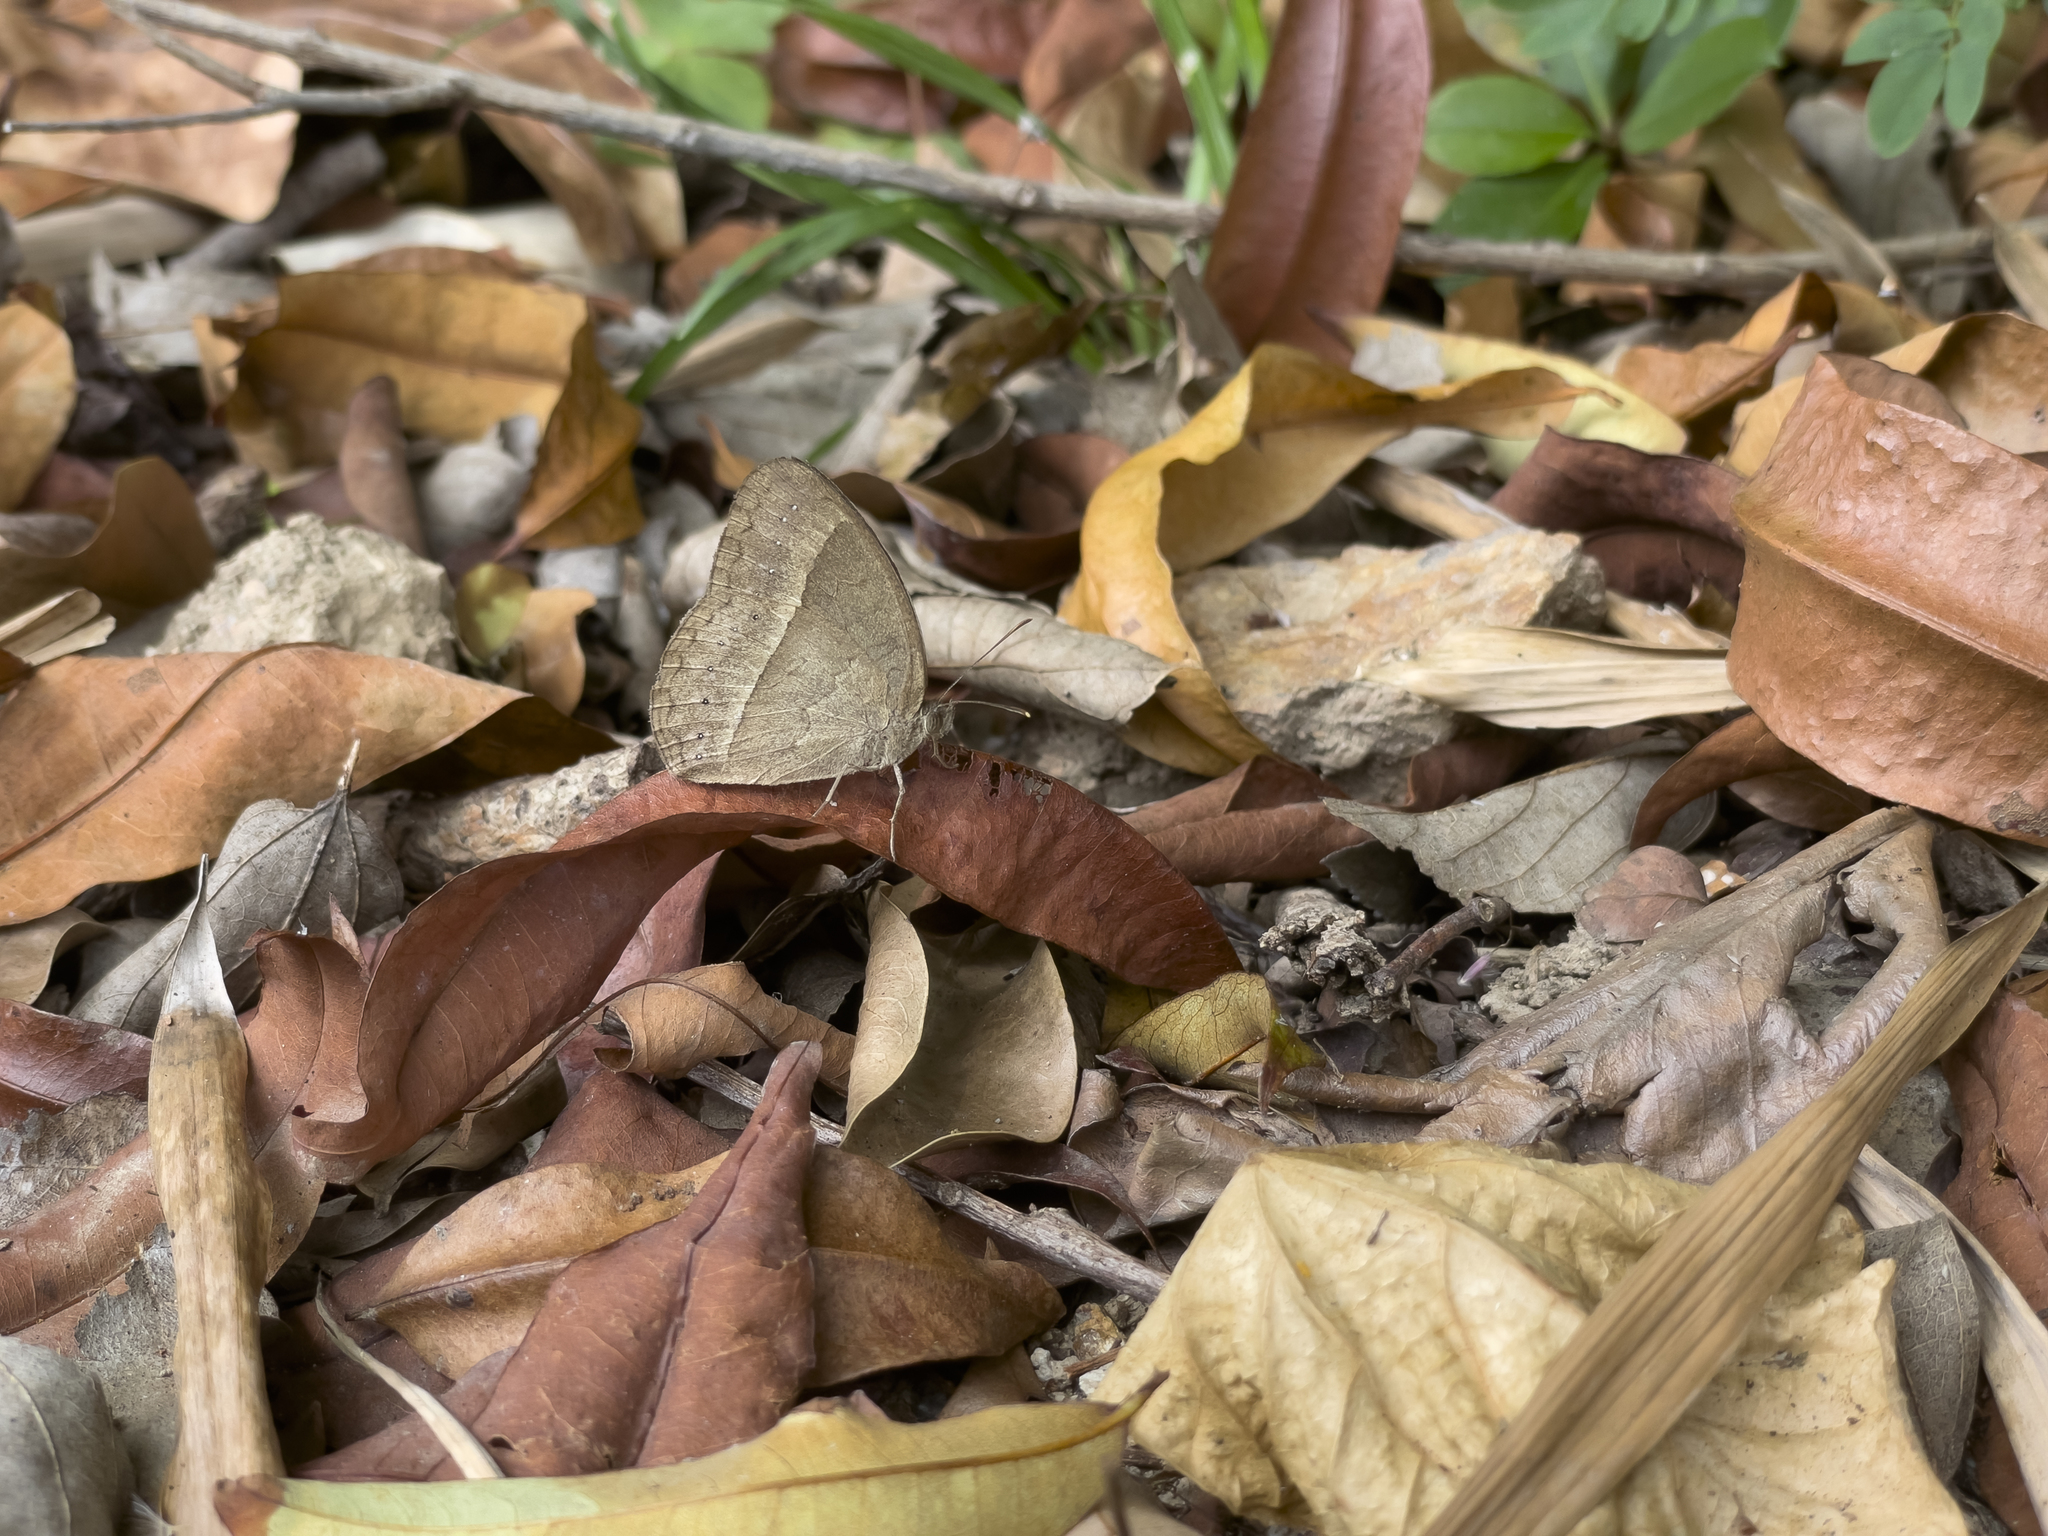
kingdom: Animalia
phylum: Arthropoda
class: Insecta
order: Lepidoptera
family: Nymphalidae
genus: Mycalesis
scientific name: Mycalesis mineus
